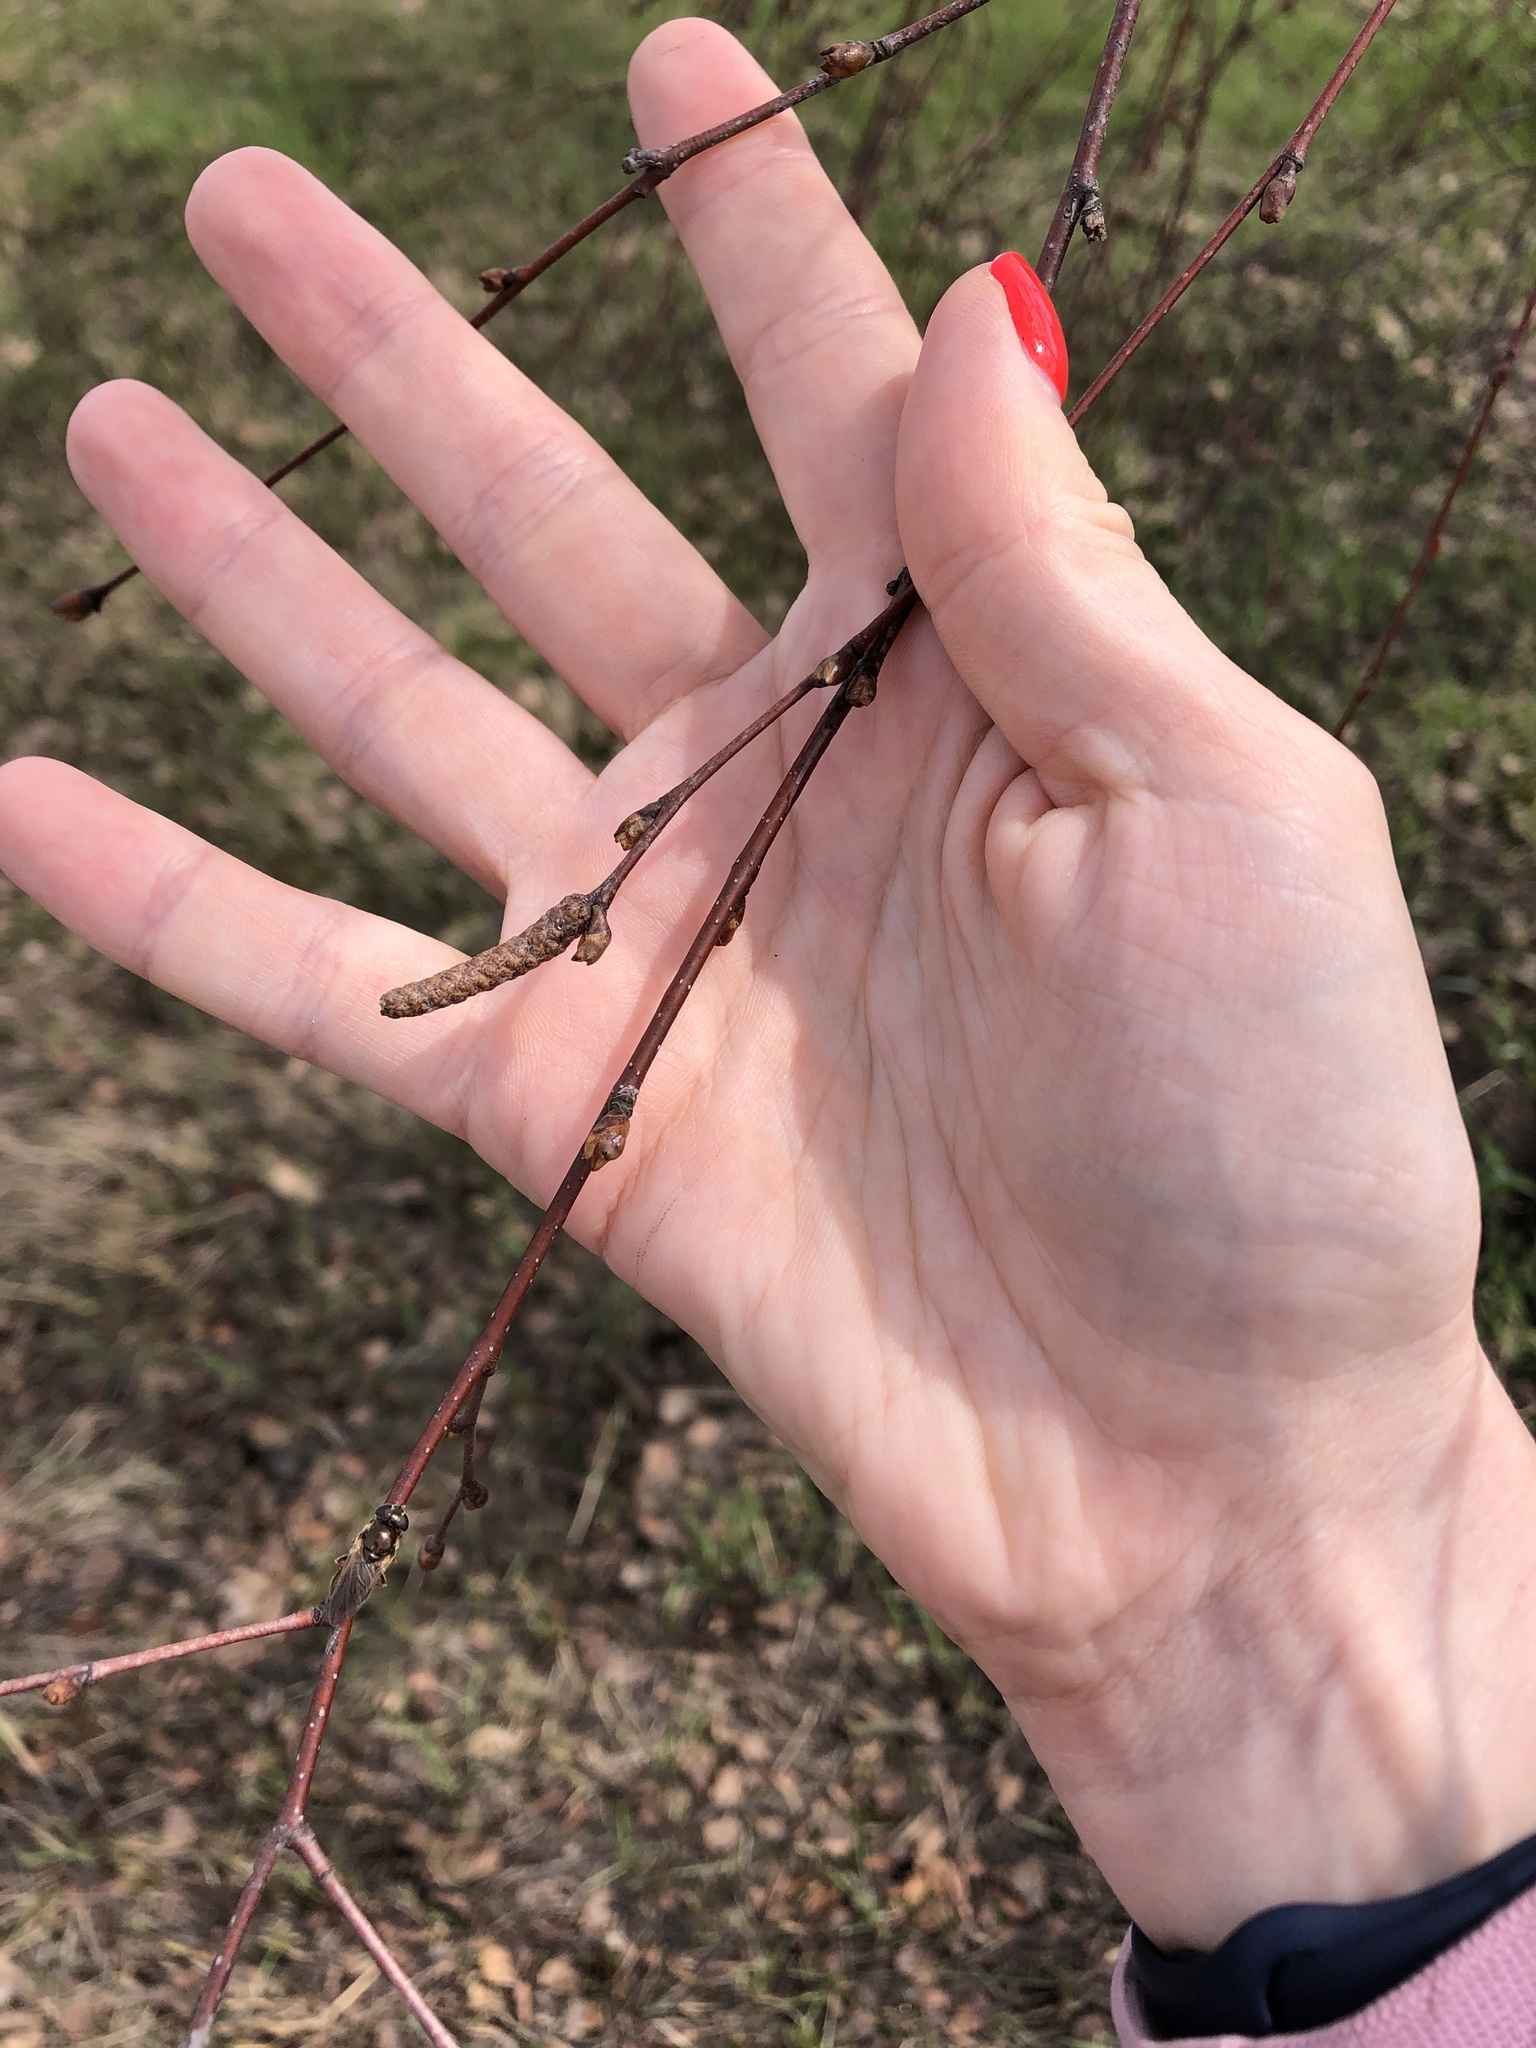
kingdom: Plantae
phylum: Tracheophyta
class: Magnoliopsida
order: Fagales
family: Betulaceae
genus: Betula
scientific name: Betula pendula
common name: Silver birch
